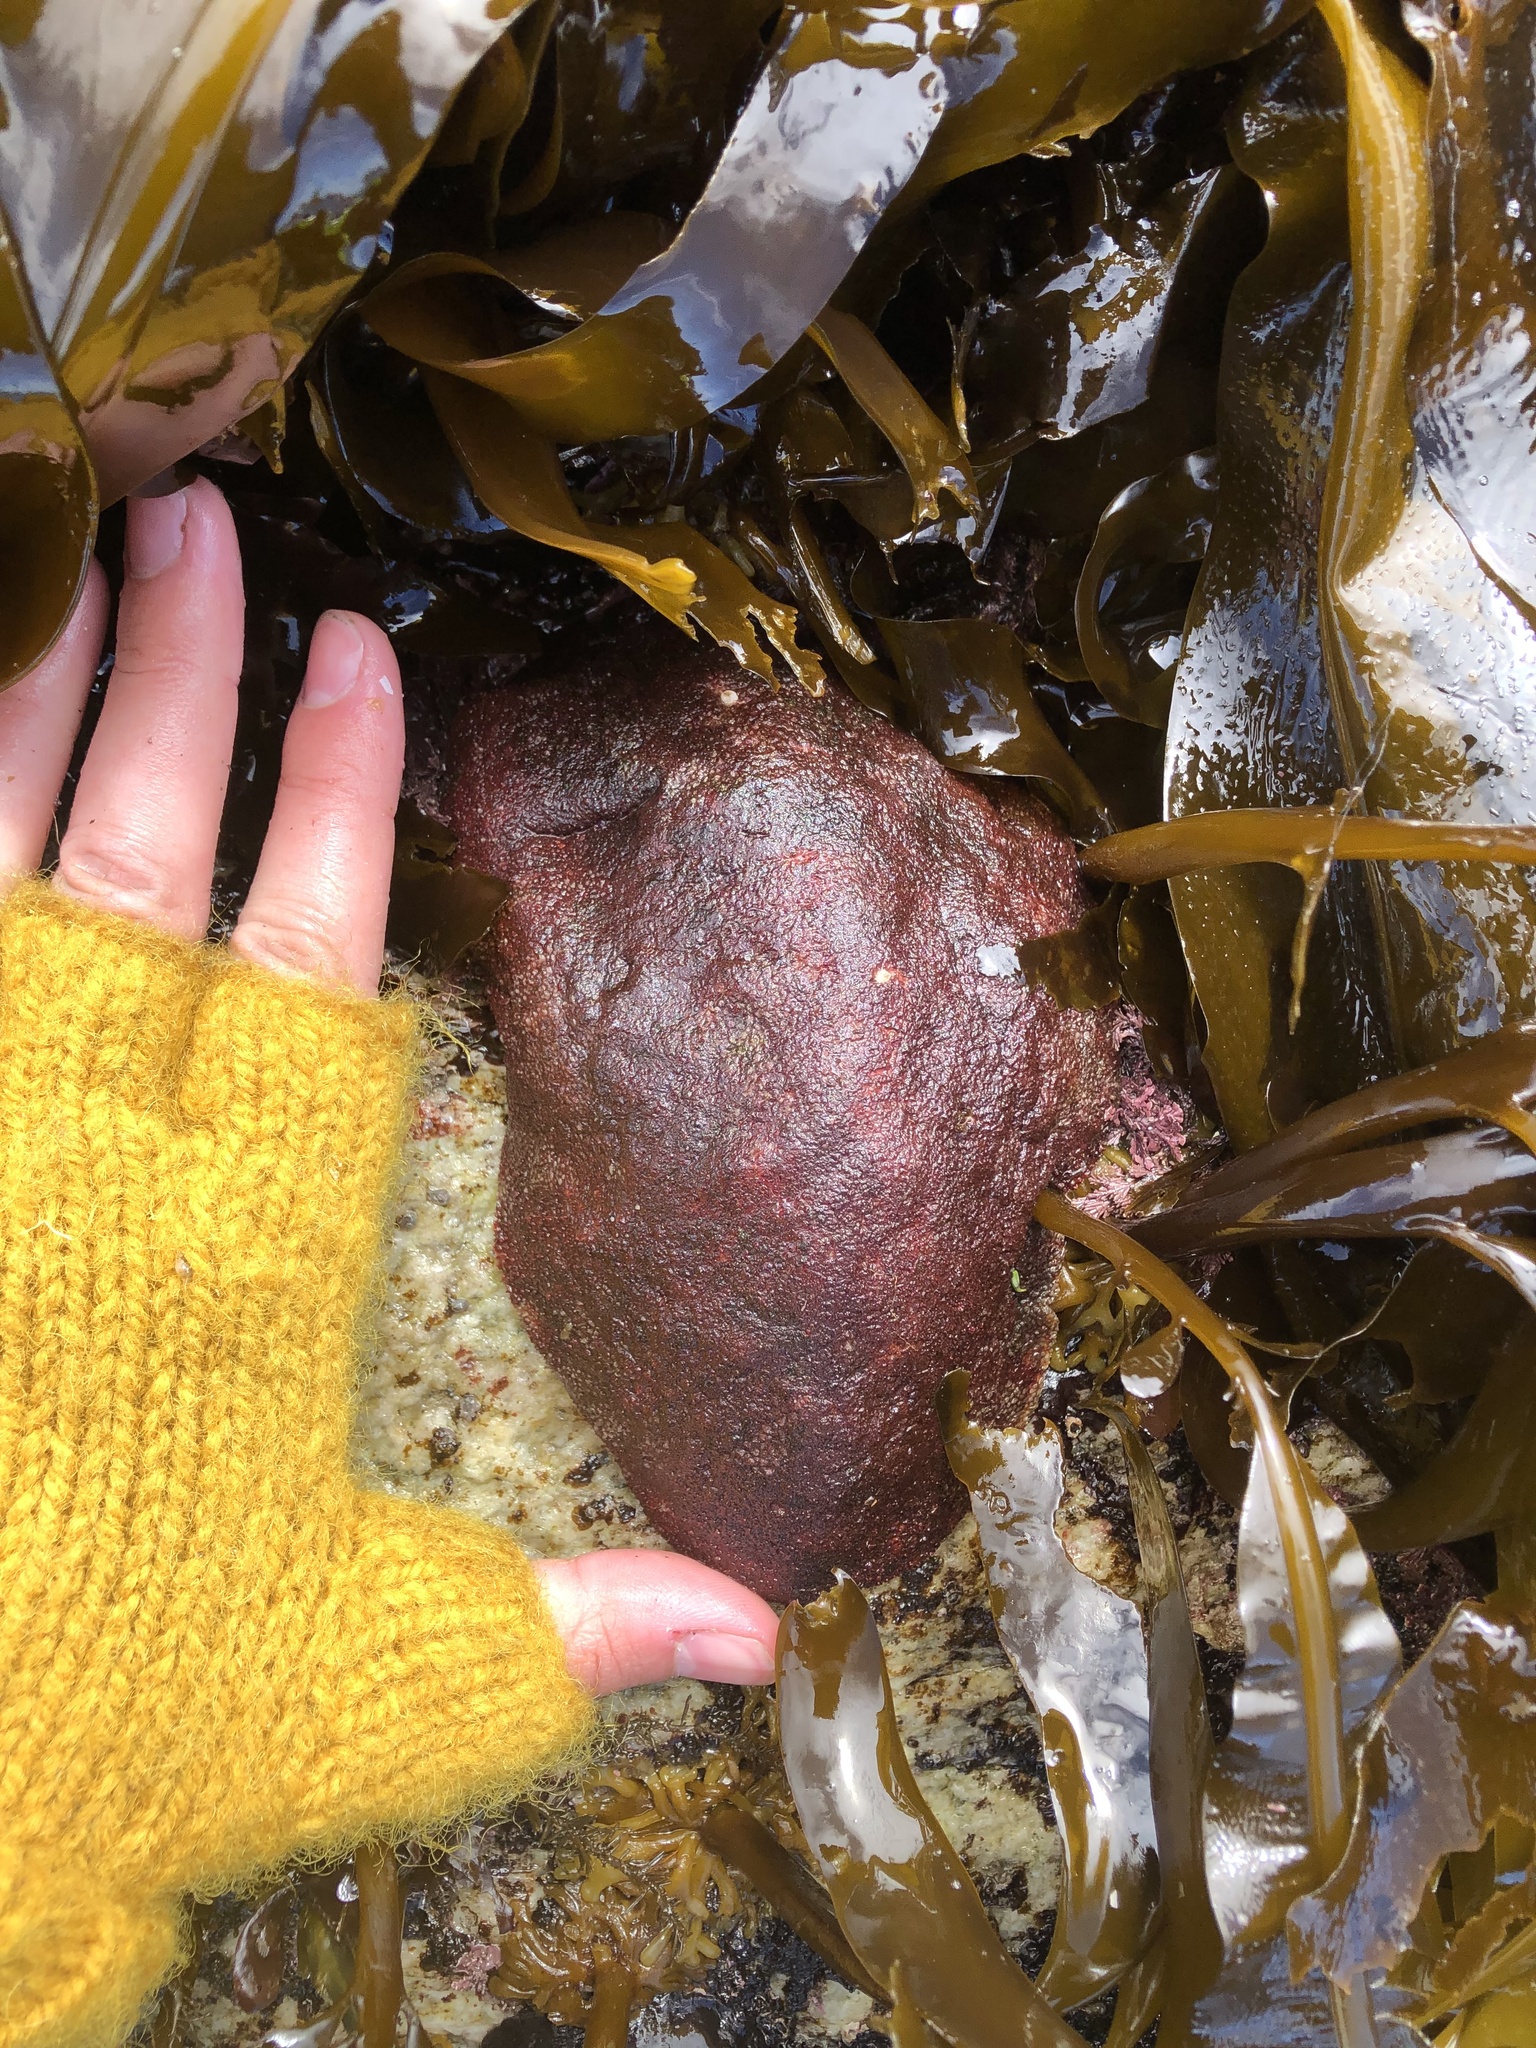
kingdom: Animalia
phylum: Mollusca
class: Polyplacophora
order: Chitonida
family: Acanthochitonidae
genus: Cryptochiton
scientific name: Cryptochiton stelleri
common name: Giant pacific chiton
